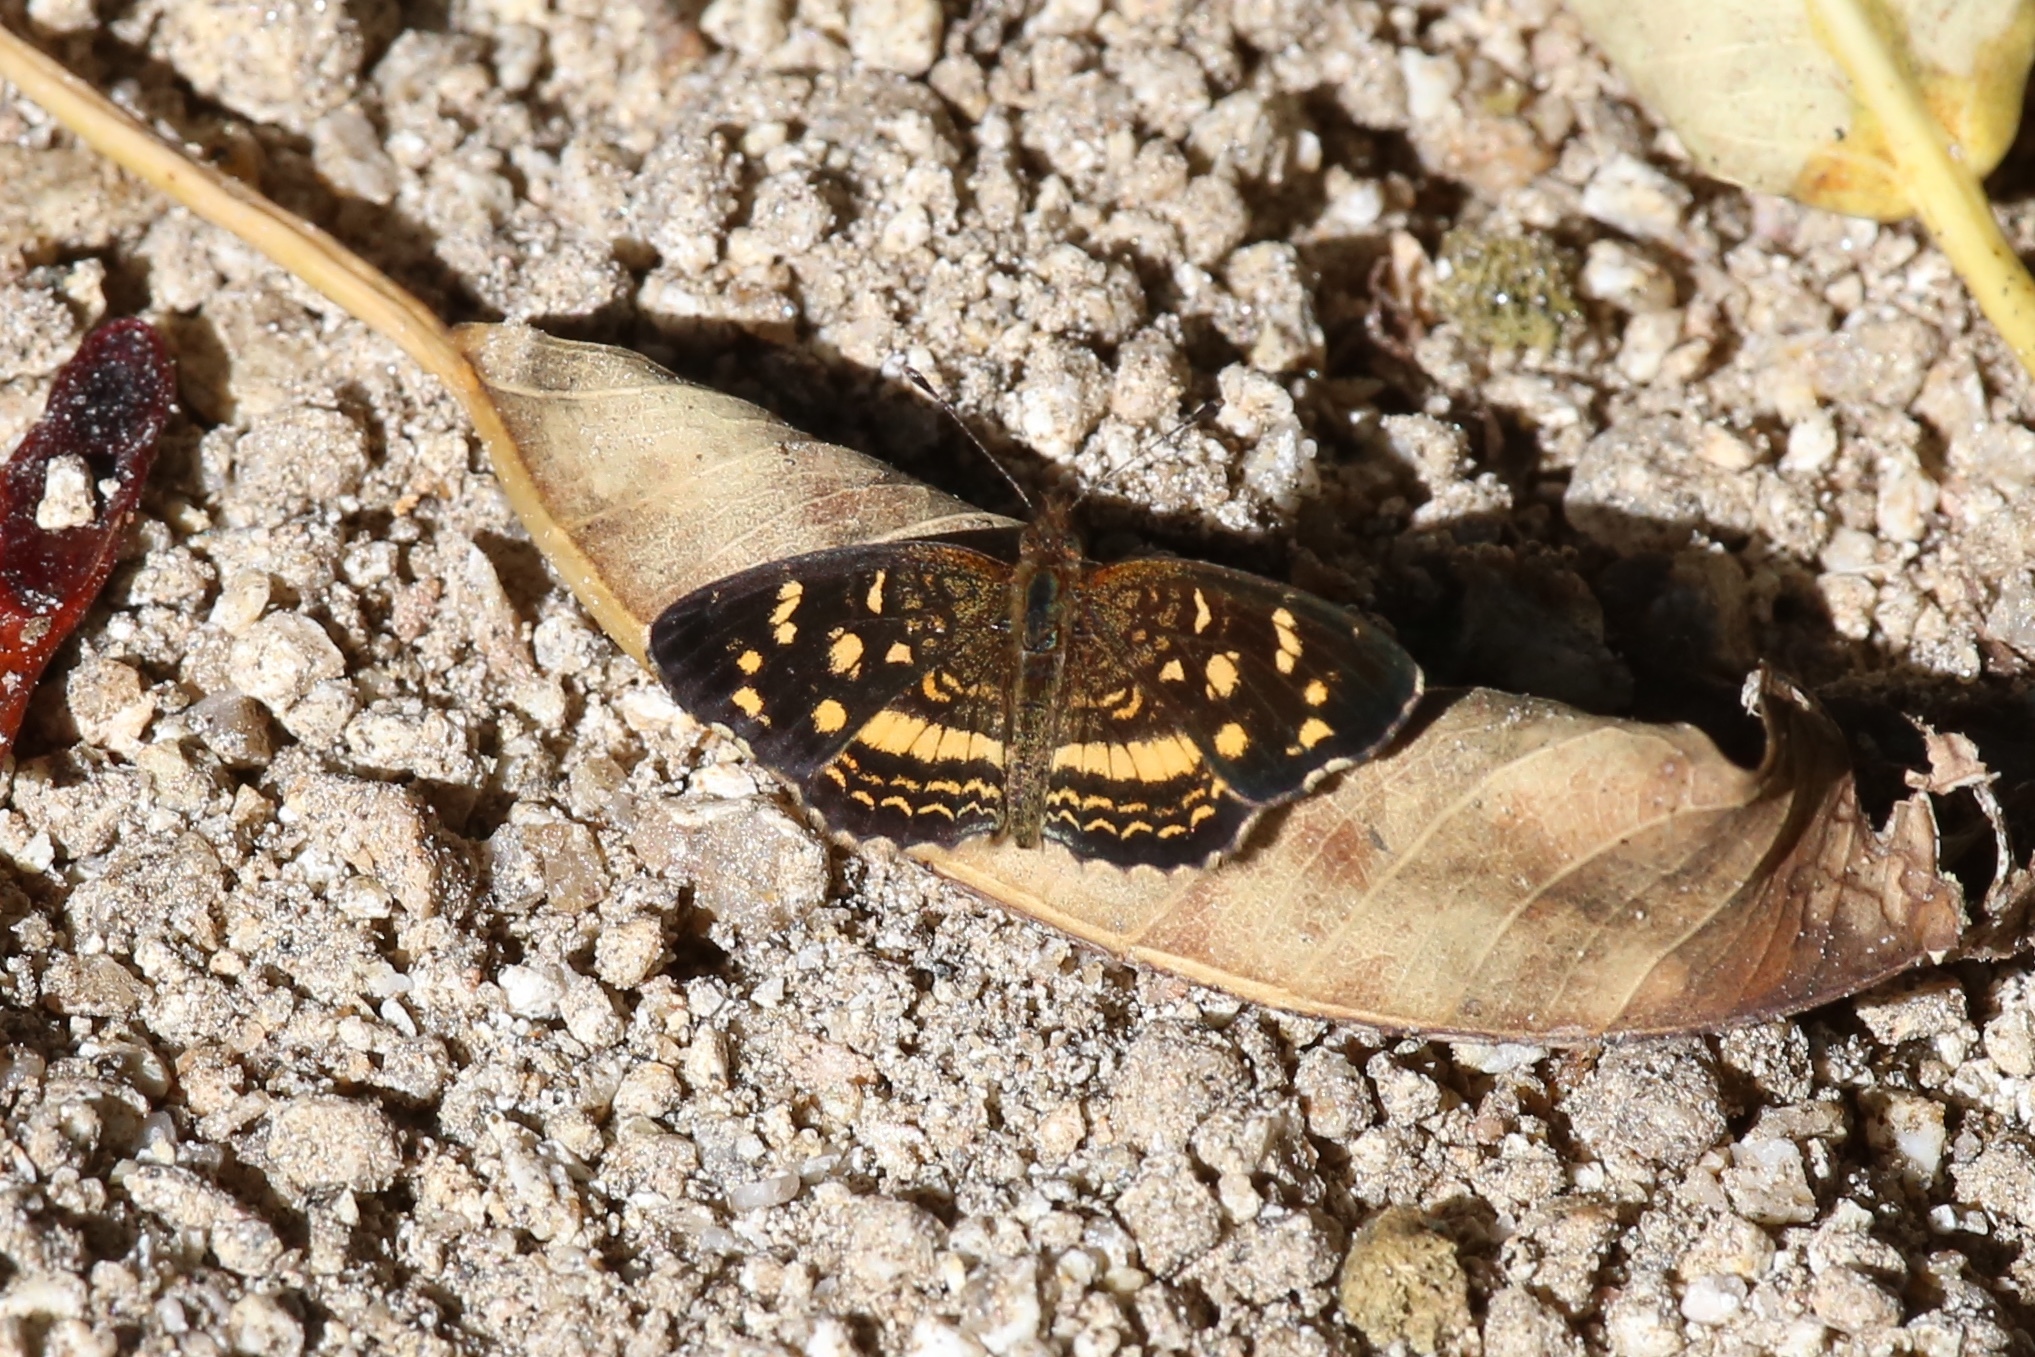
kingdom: Animalia
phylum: Arthropoda
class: Insecta
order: Lepidoptera
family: Nymphalidae
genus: Anthanassa
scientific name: Anthanassa tulcis
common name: Pale-banded crescent
